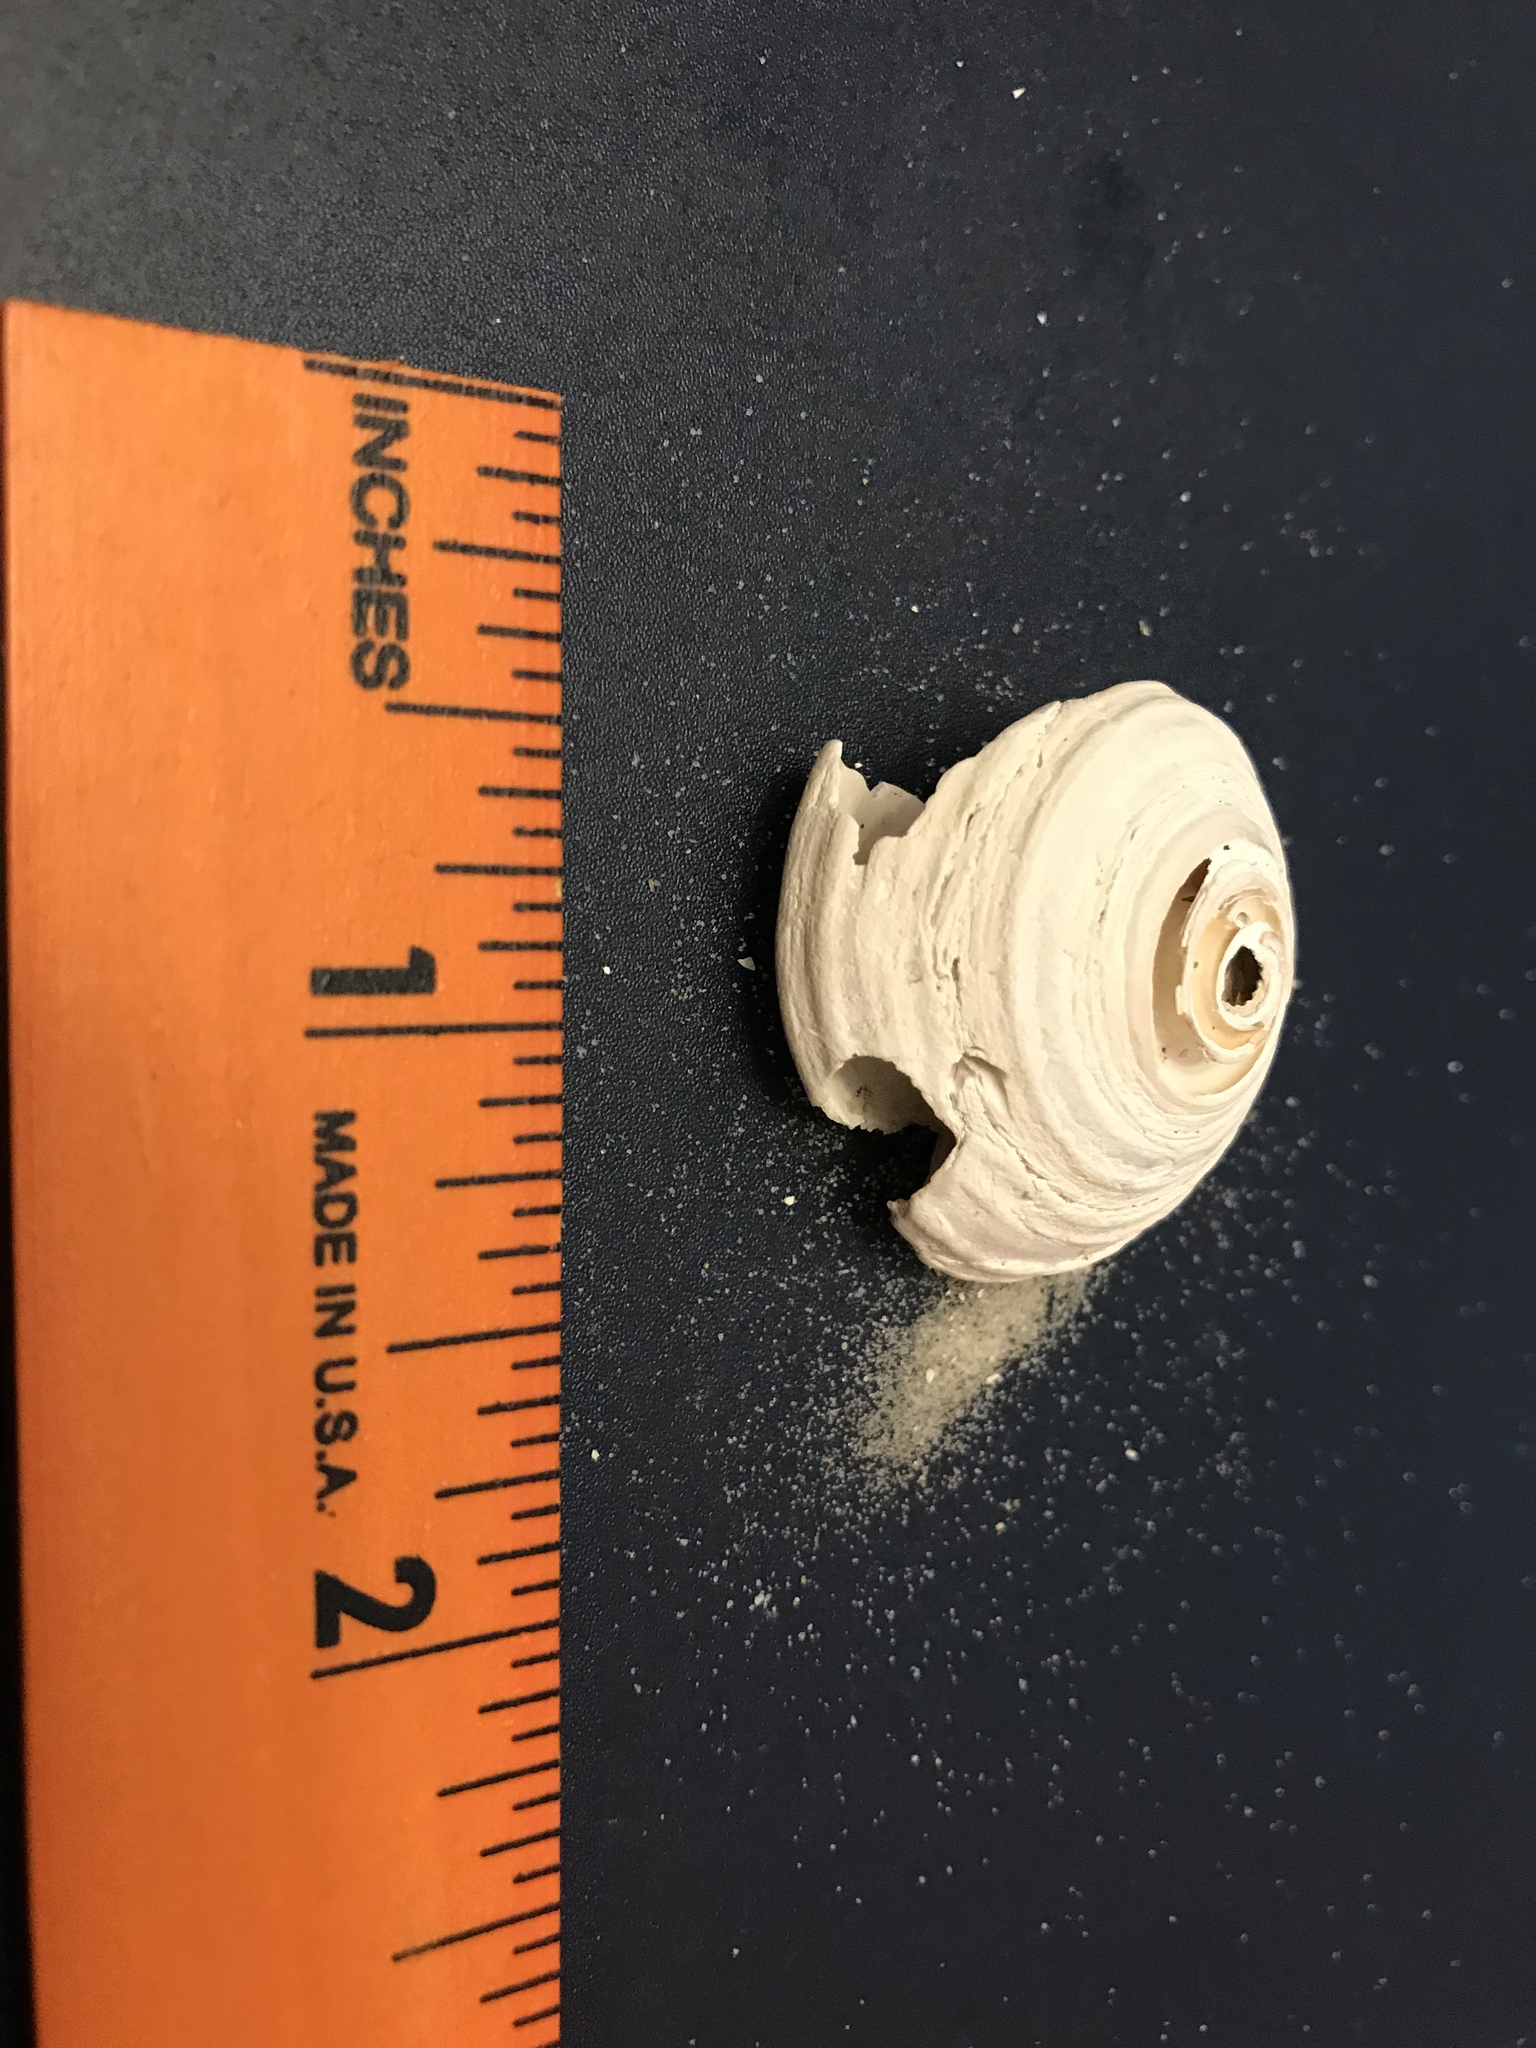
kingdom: Animalia
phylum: Mollusca
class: Gastropoda
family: Architectonicidae
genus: Architectonica
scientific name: Architectonica nobilis
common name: Common sundial
